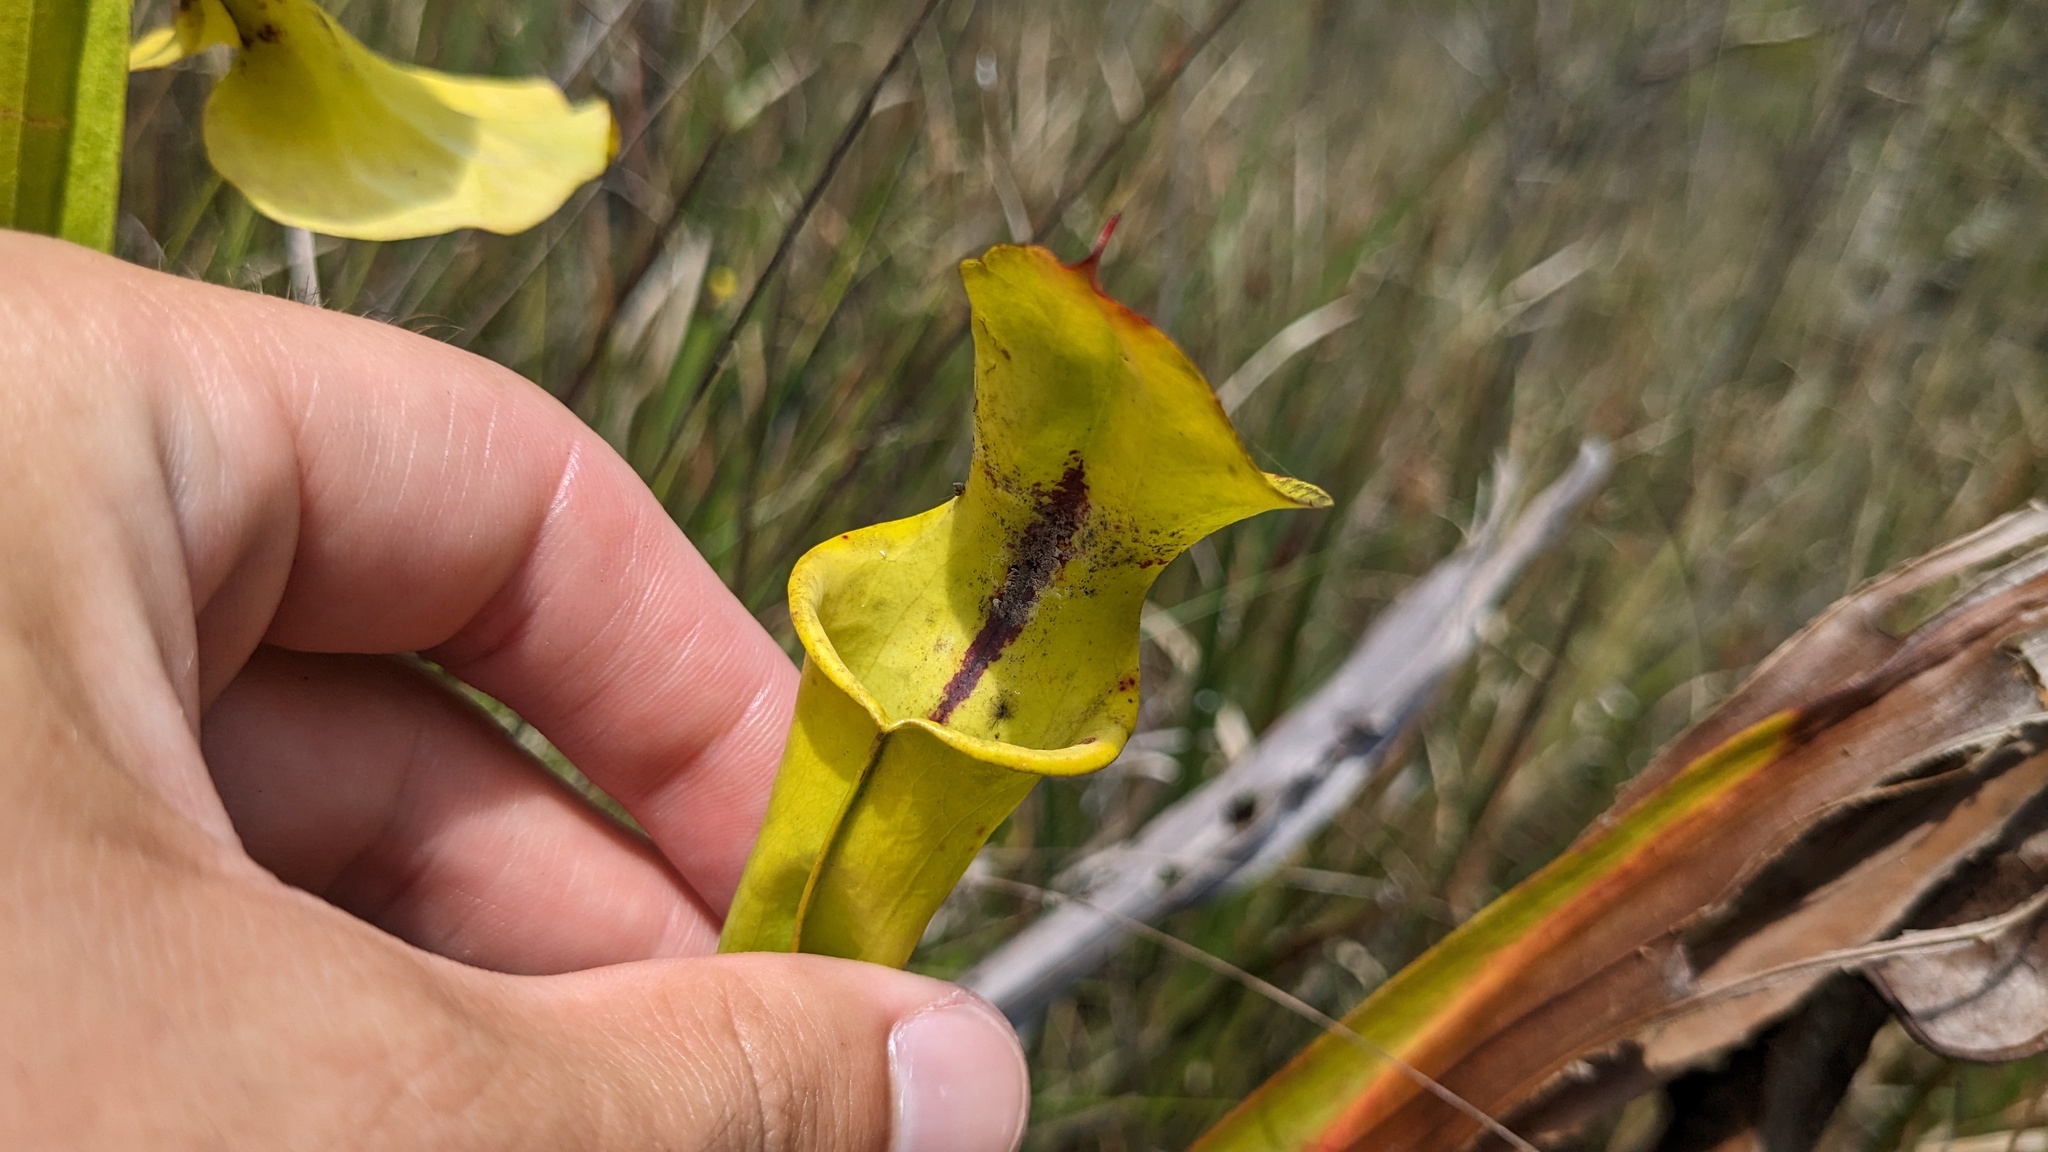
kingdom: Plantae
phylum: Tracheophyta
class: Magnoliopsida
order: Ericales
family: Sarraceniaceae
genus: Sarracenia
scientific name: Sarracenia flava
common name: Trumpets
